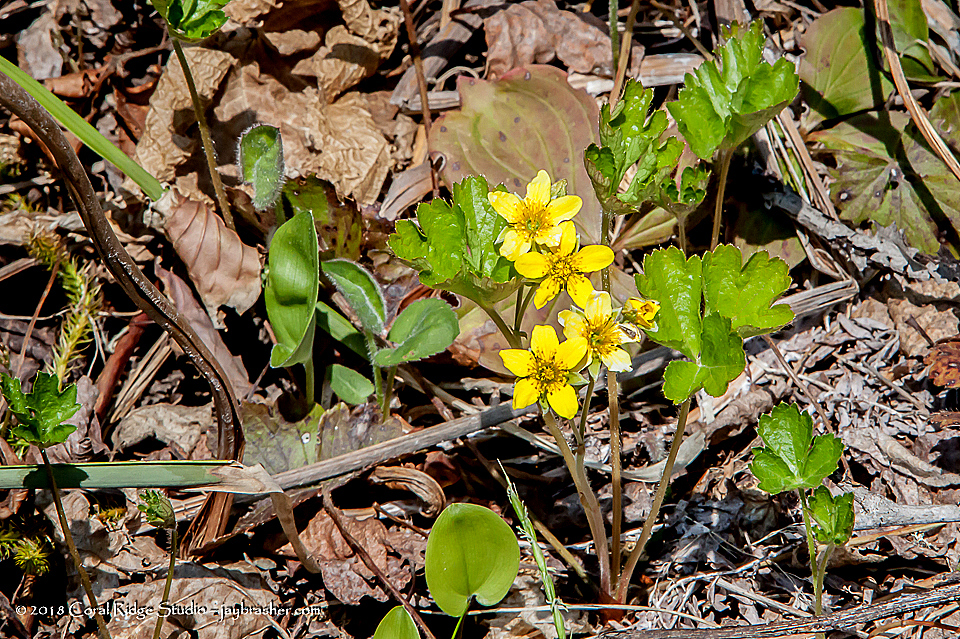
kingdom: Plantae
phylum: Tracheophyta
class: Magnoliopsida
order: Rosales
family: Rosaceae
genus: Geum
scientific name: Geum fragarioides
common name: Appalachian barren strawberry
